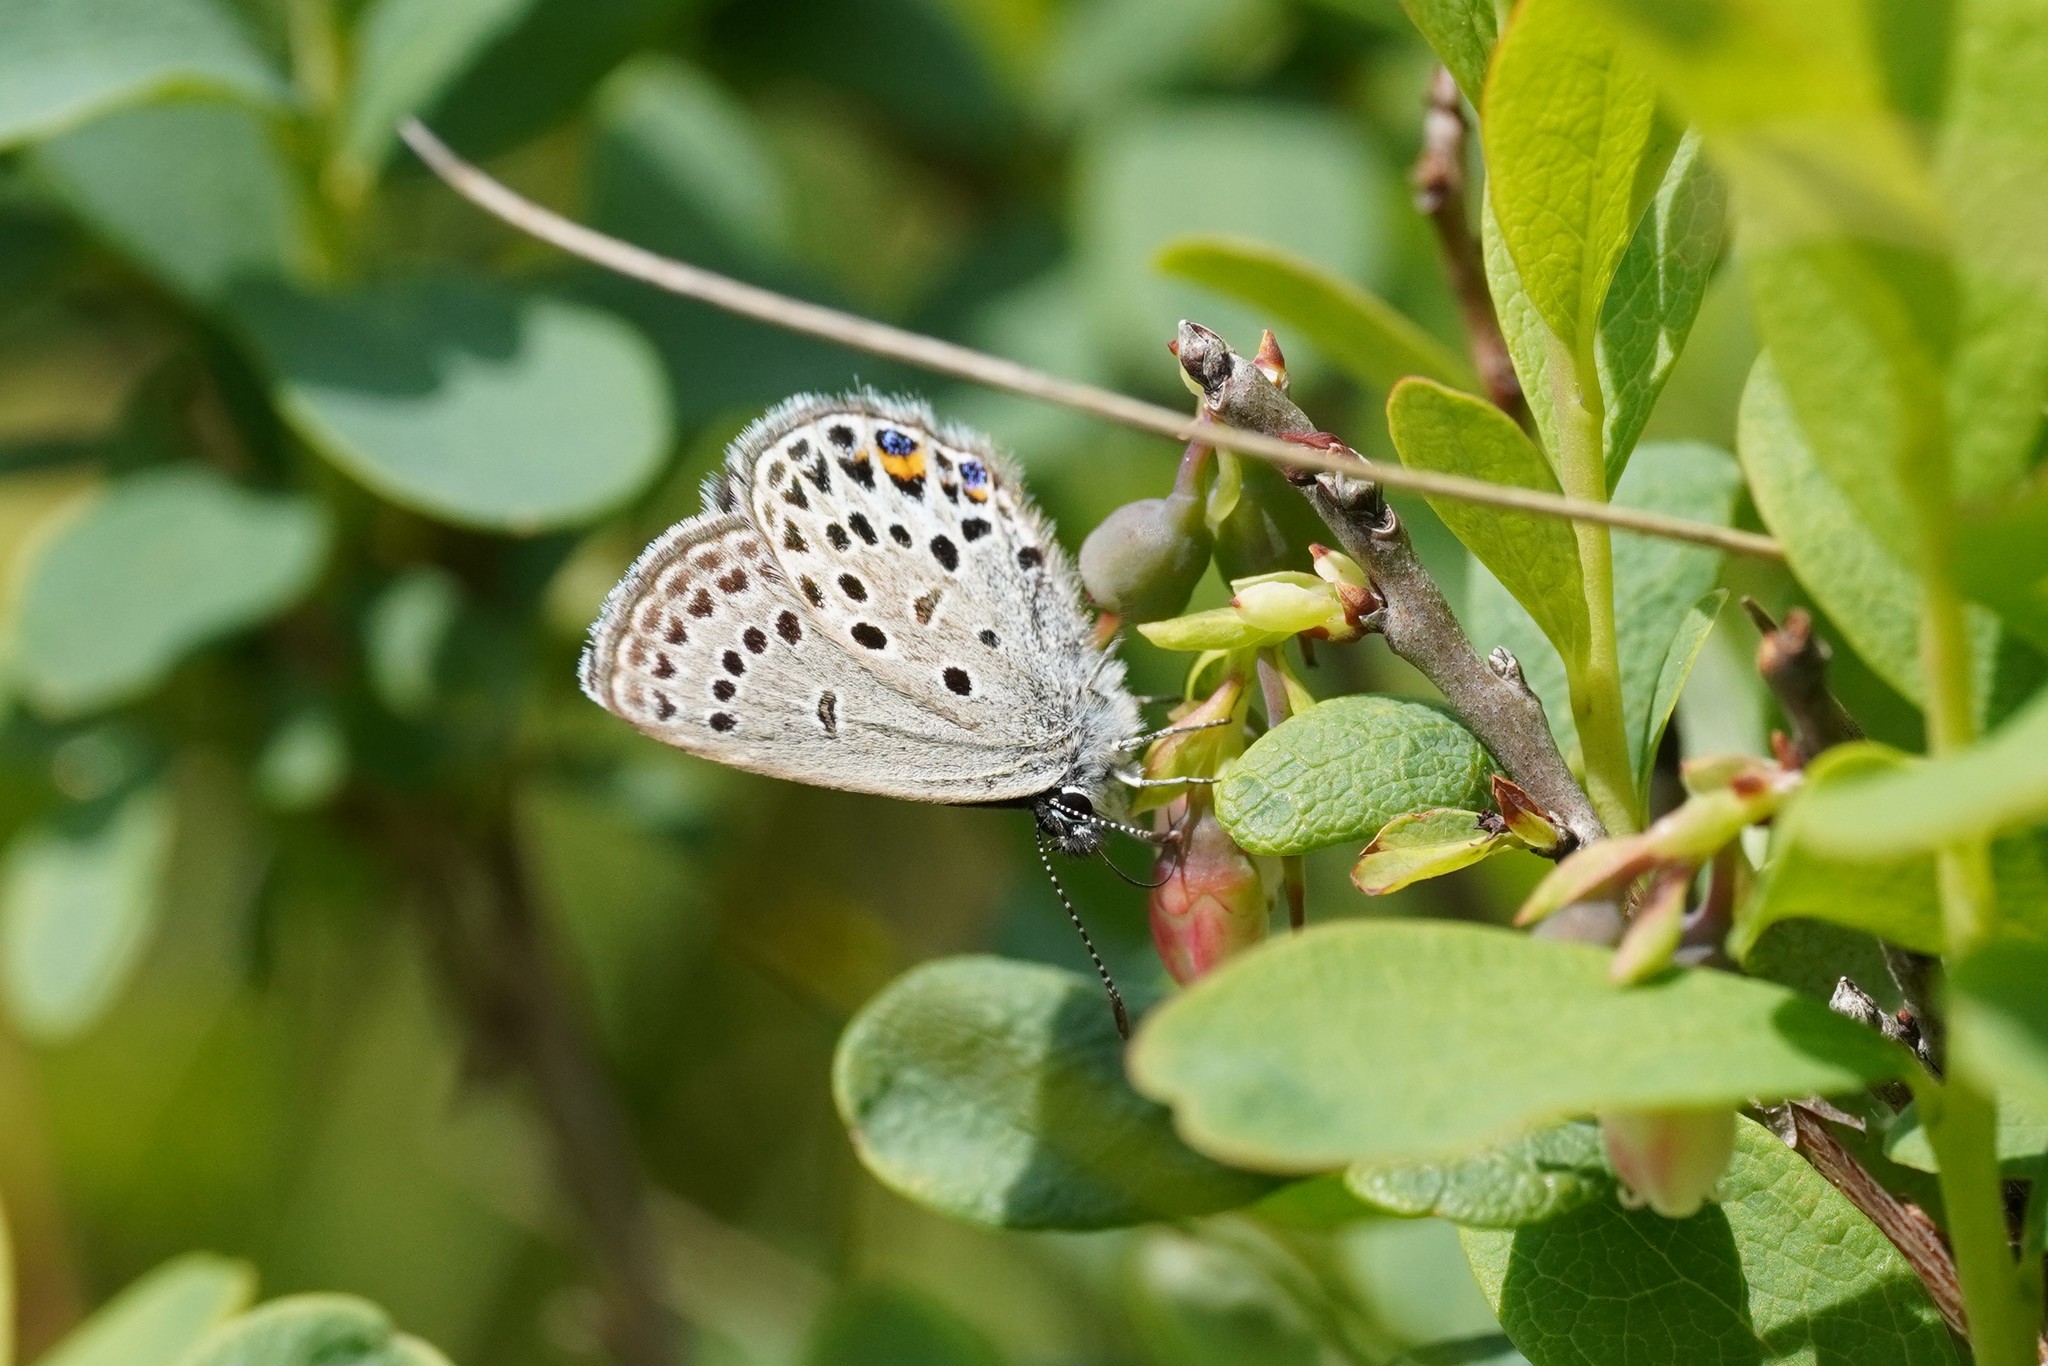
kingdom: Animalia
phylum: Arthropoda
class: Insecta
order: Lepidoptera
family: Lycaenidae
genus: Vacciniina
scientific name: Vacciniina optilete
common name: Cranberry blue
